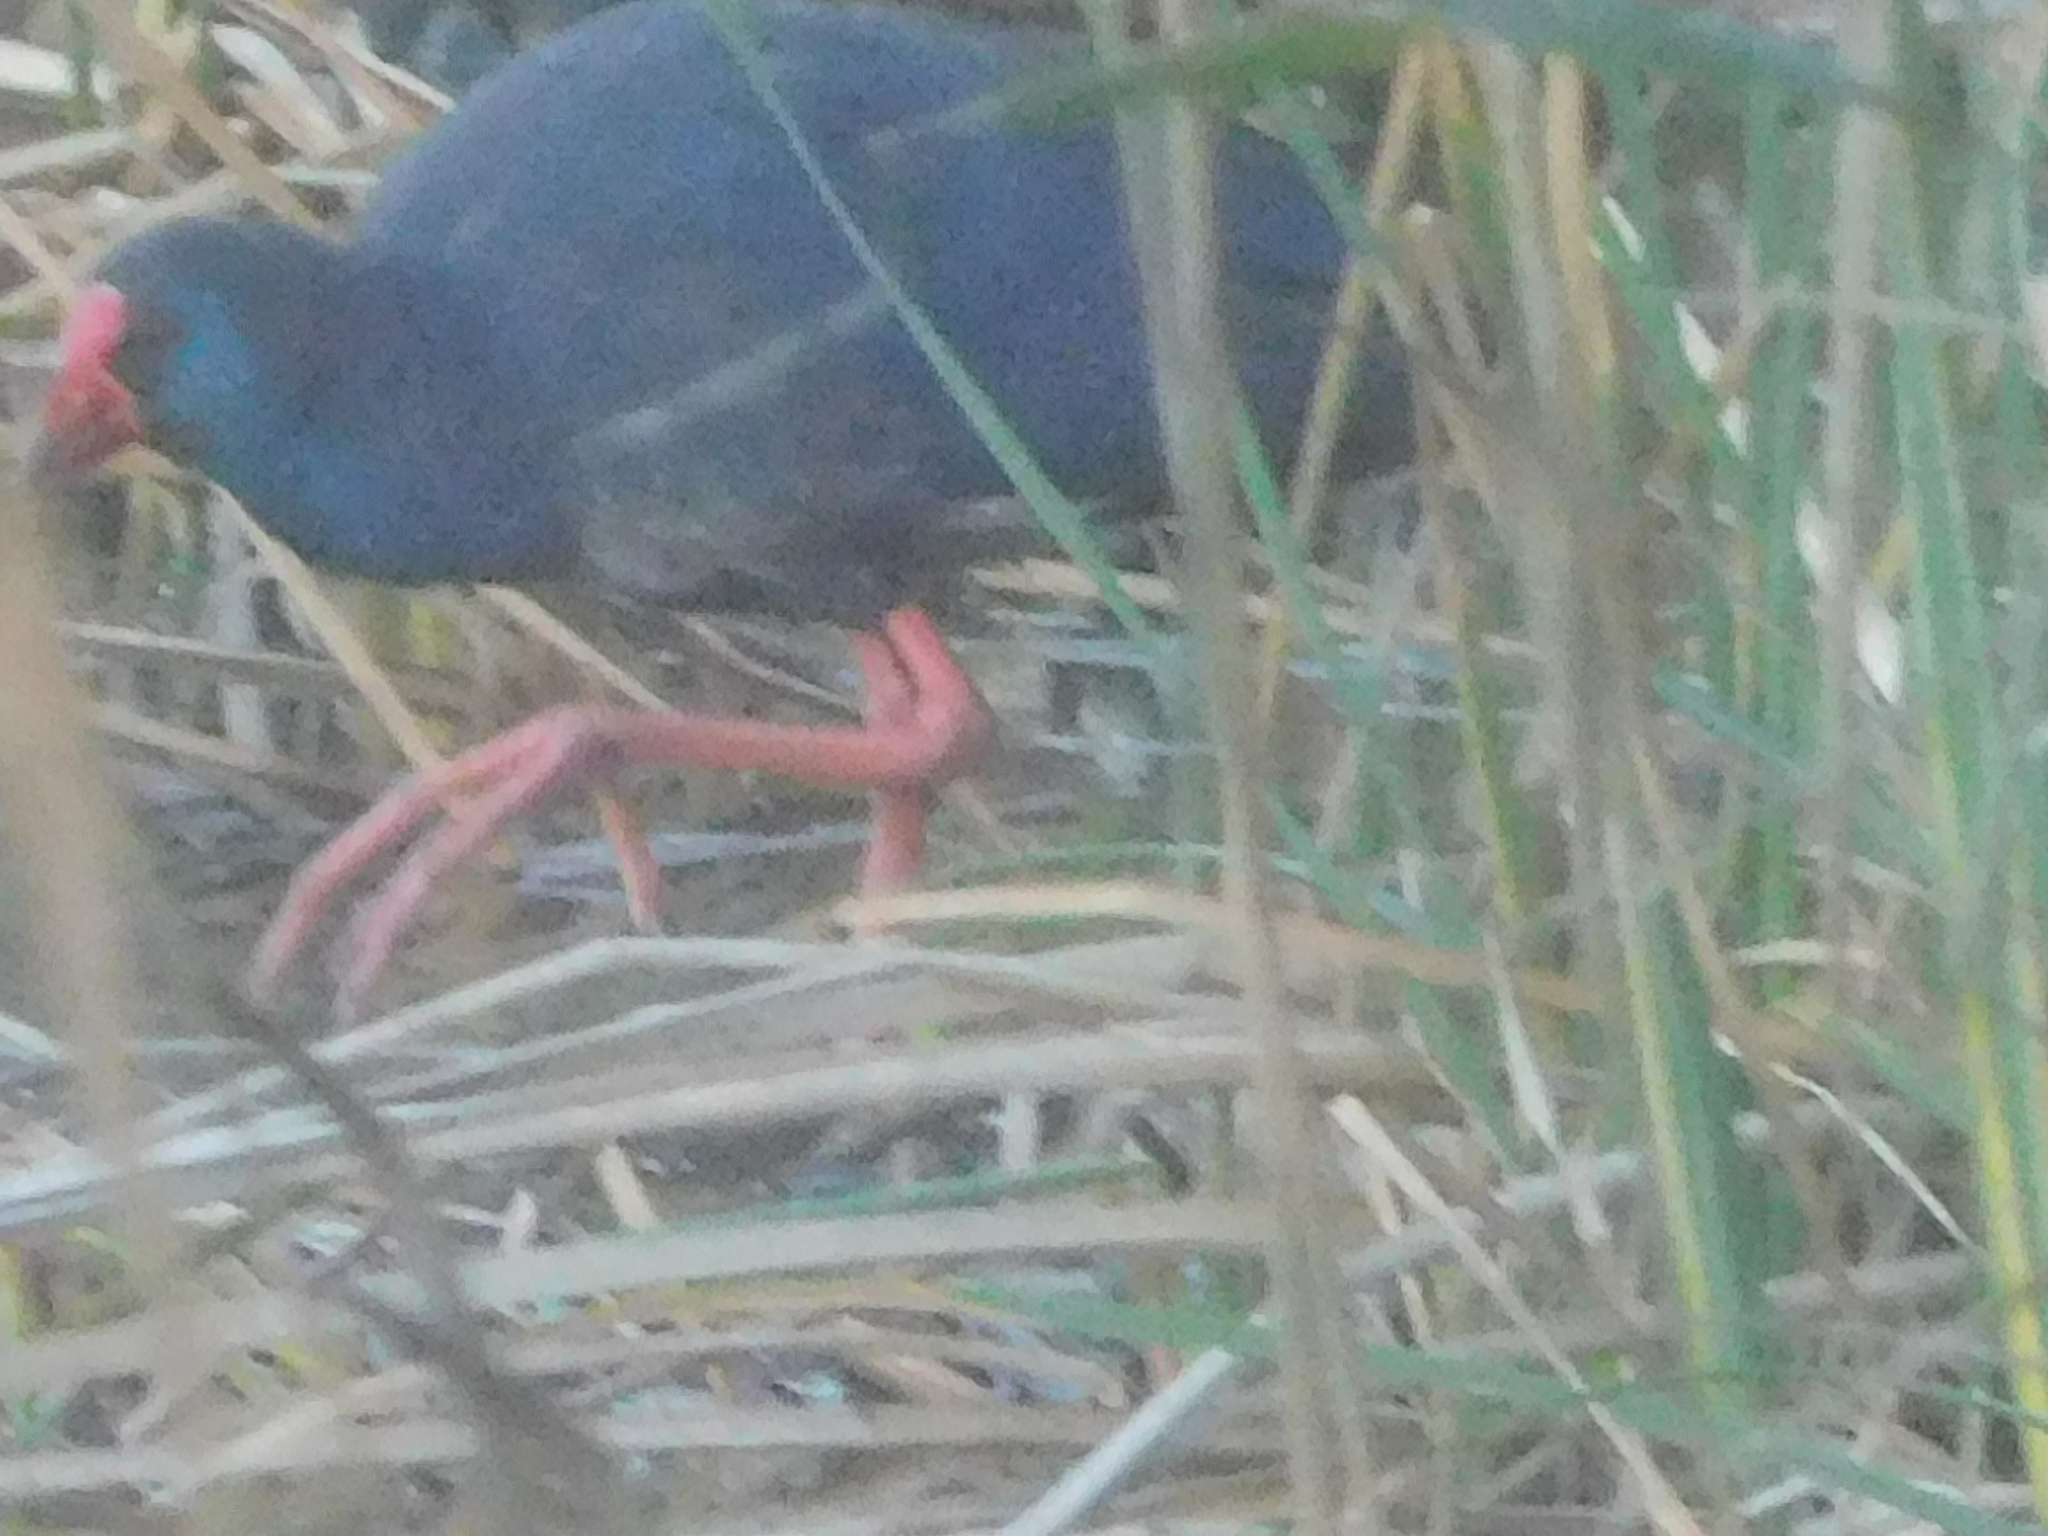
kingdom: Animalia
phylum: Chordata
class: Aves
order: Gruiformes
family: Rallidae
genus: Porphyrio
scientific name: Porphyrio porphyrio
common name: Purple swamphen
